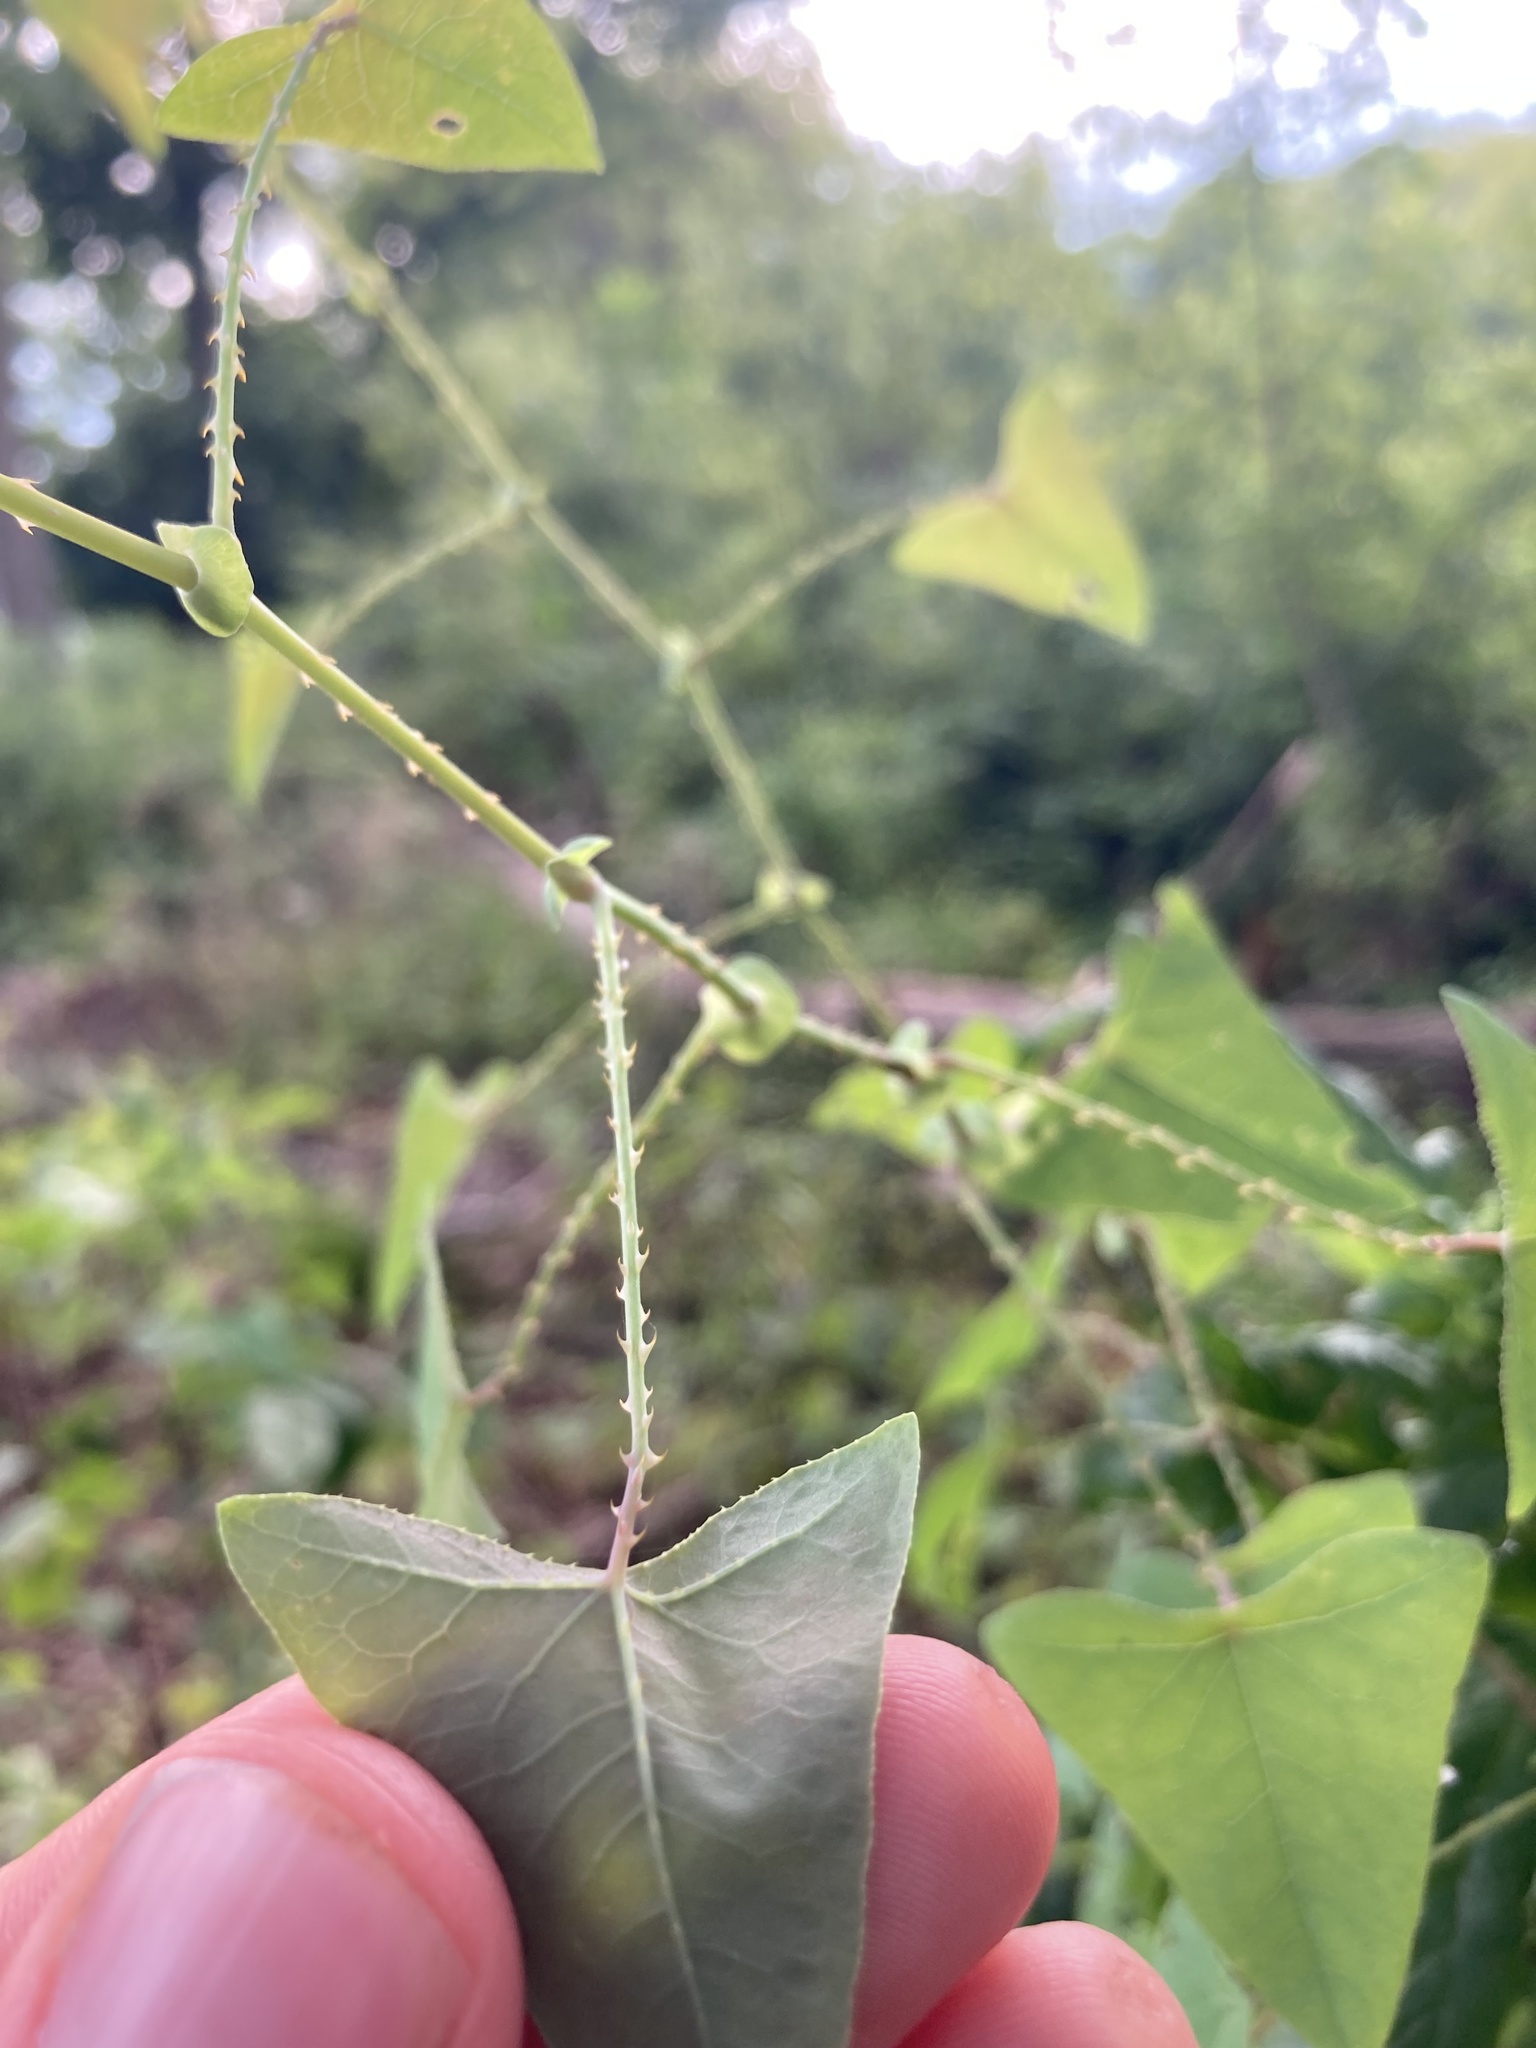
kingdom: Plantae
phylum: Tracheophyta
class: Magnoliopsida
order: Caryophyllales
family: Polygonaceae
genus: Persicaria
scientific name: Persicaria perfoliata
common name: Asiatic tearthumb
